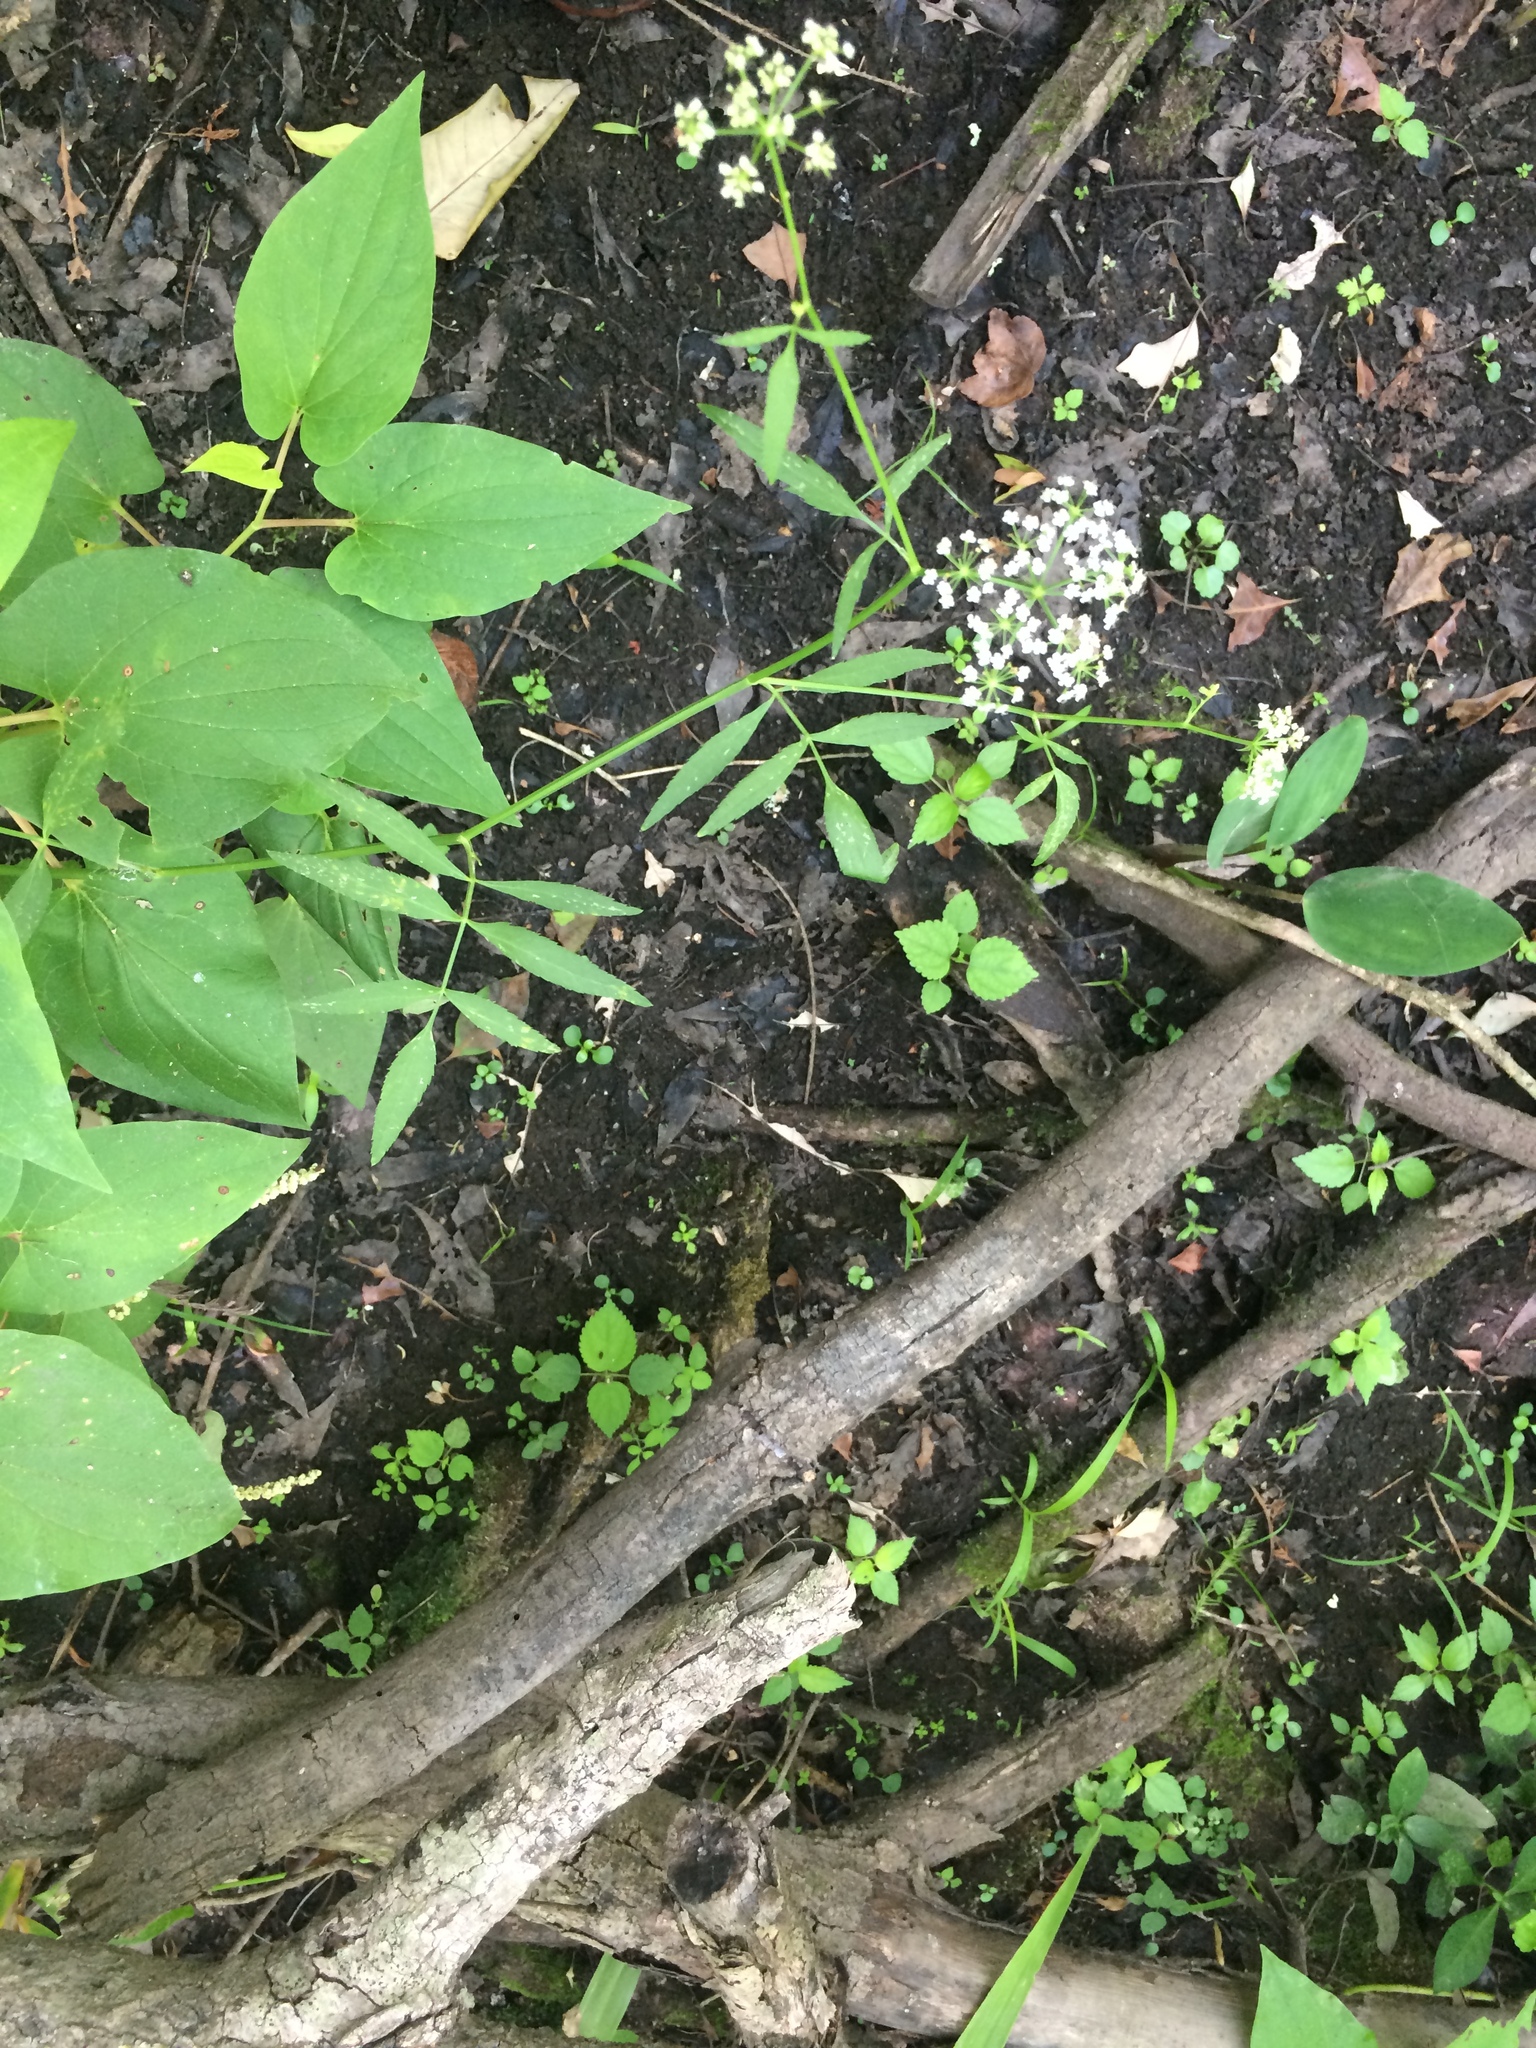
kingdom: Plantae
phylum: Tracheophyta
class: Magnoliopsida
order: Apiales
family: Apiaceae
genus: Sium
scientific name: Sium suave
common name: Hemlock water-parsnip
